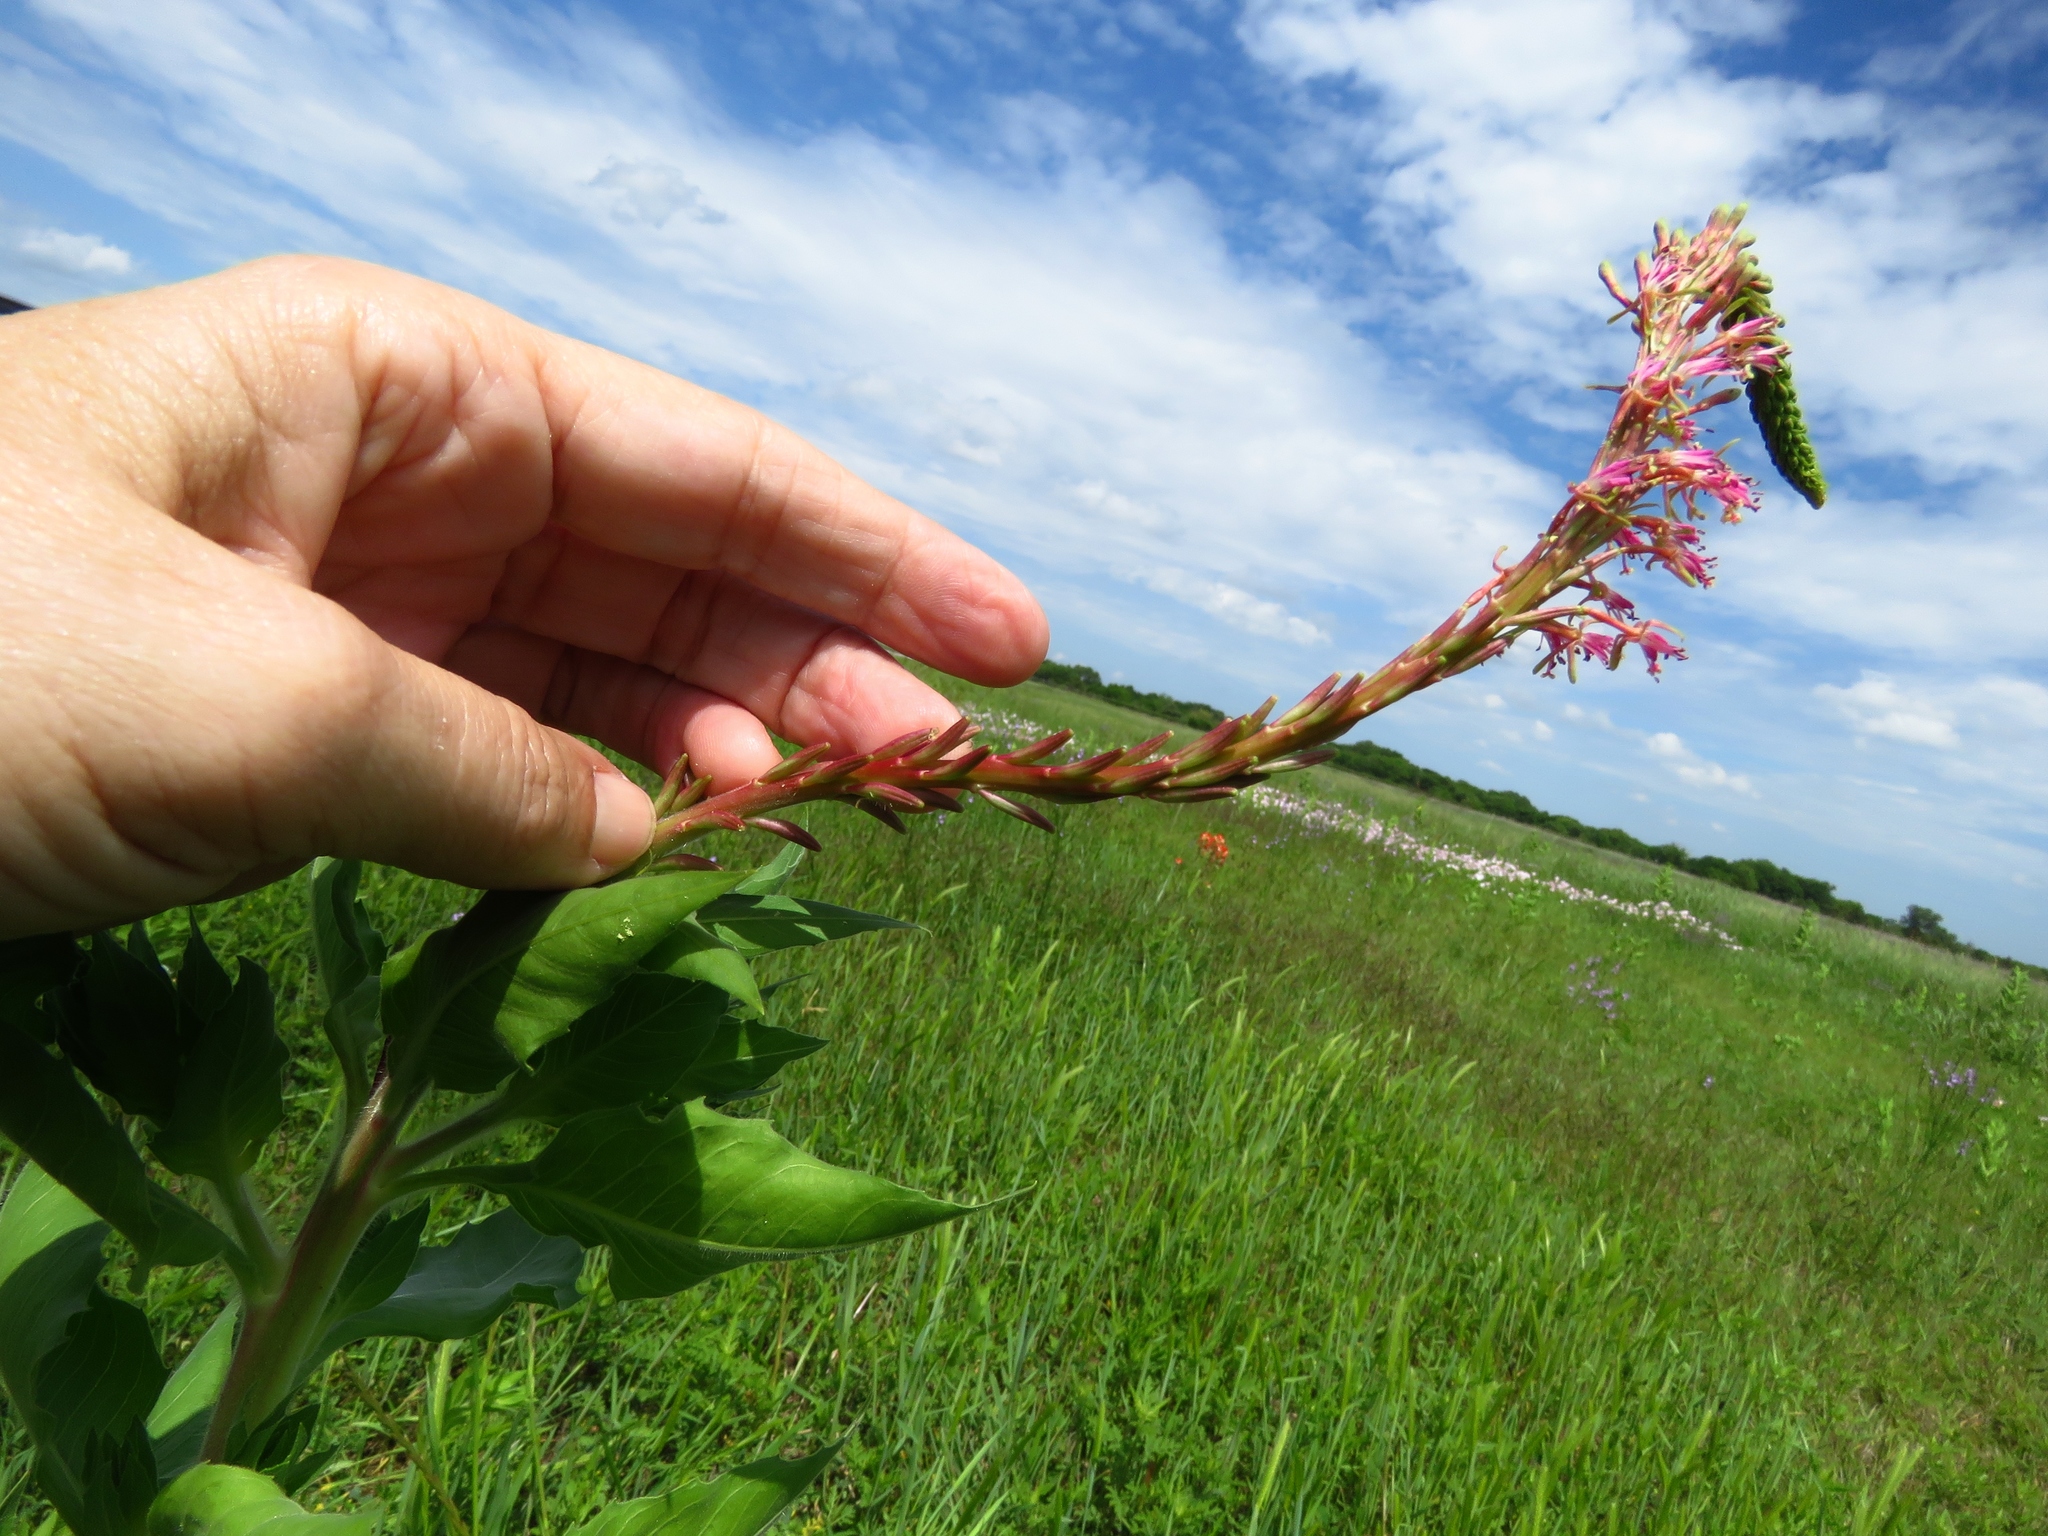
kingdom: Plantae
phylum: Tracheophyta
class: Magnoliopsida
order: Myrtales
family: Onagraceae
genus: Oenothera
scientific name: Oenothera curtiflora
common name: Velvetweed
